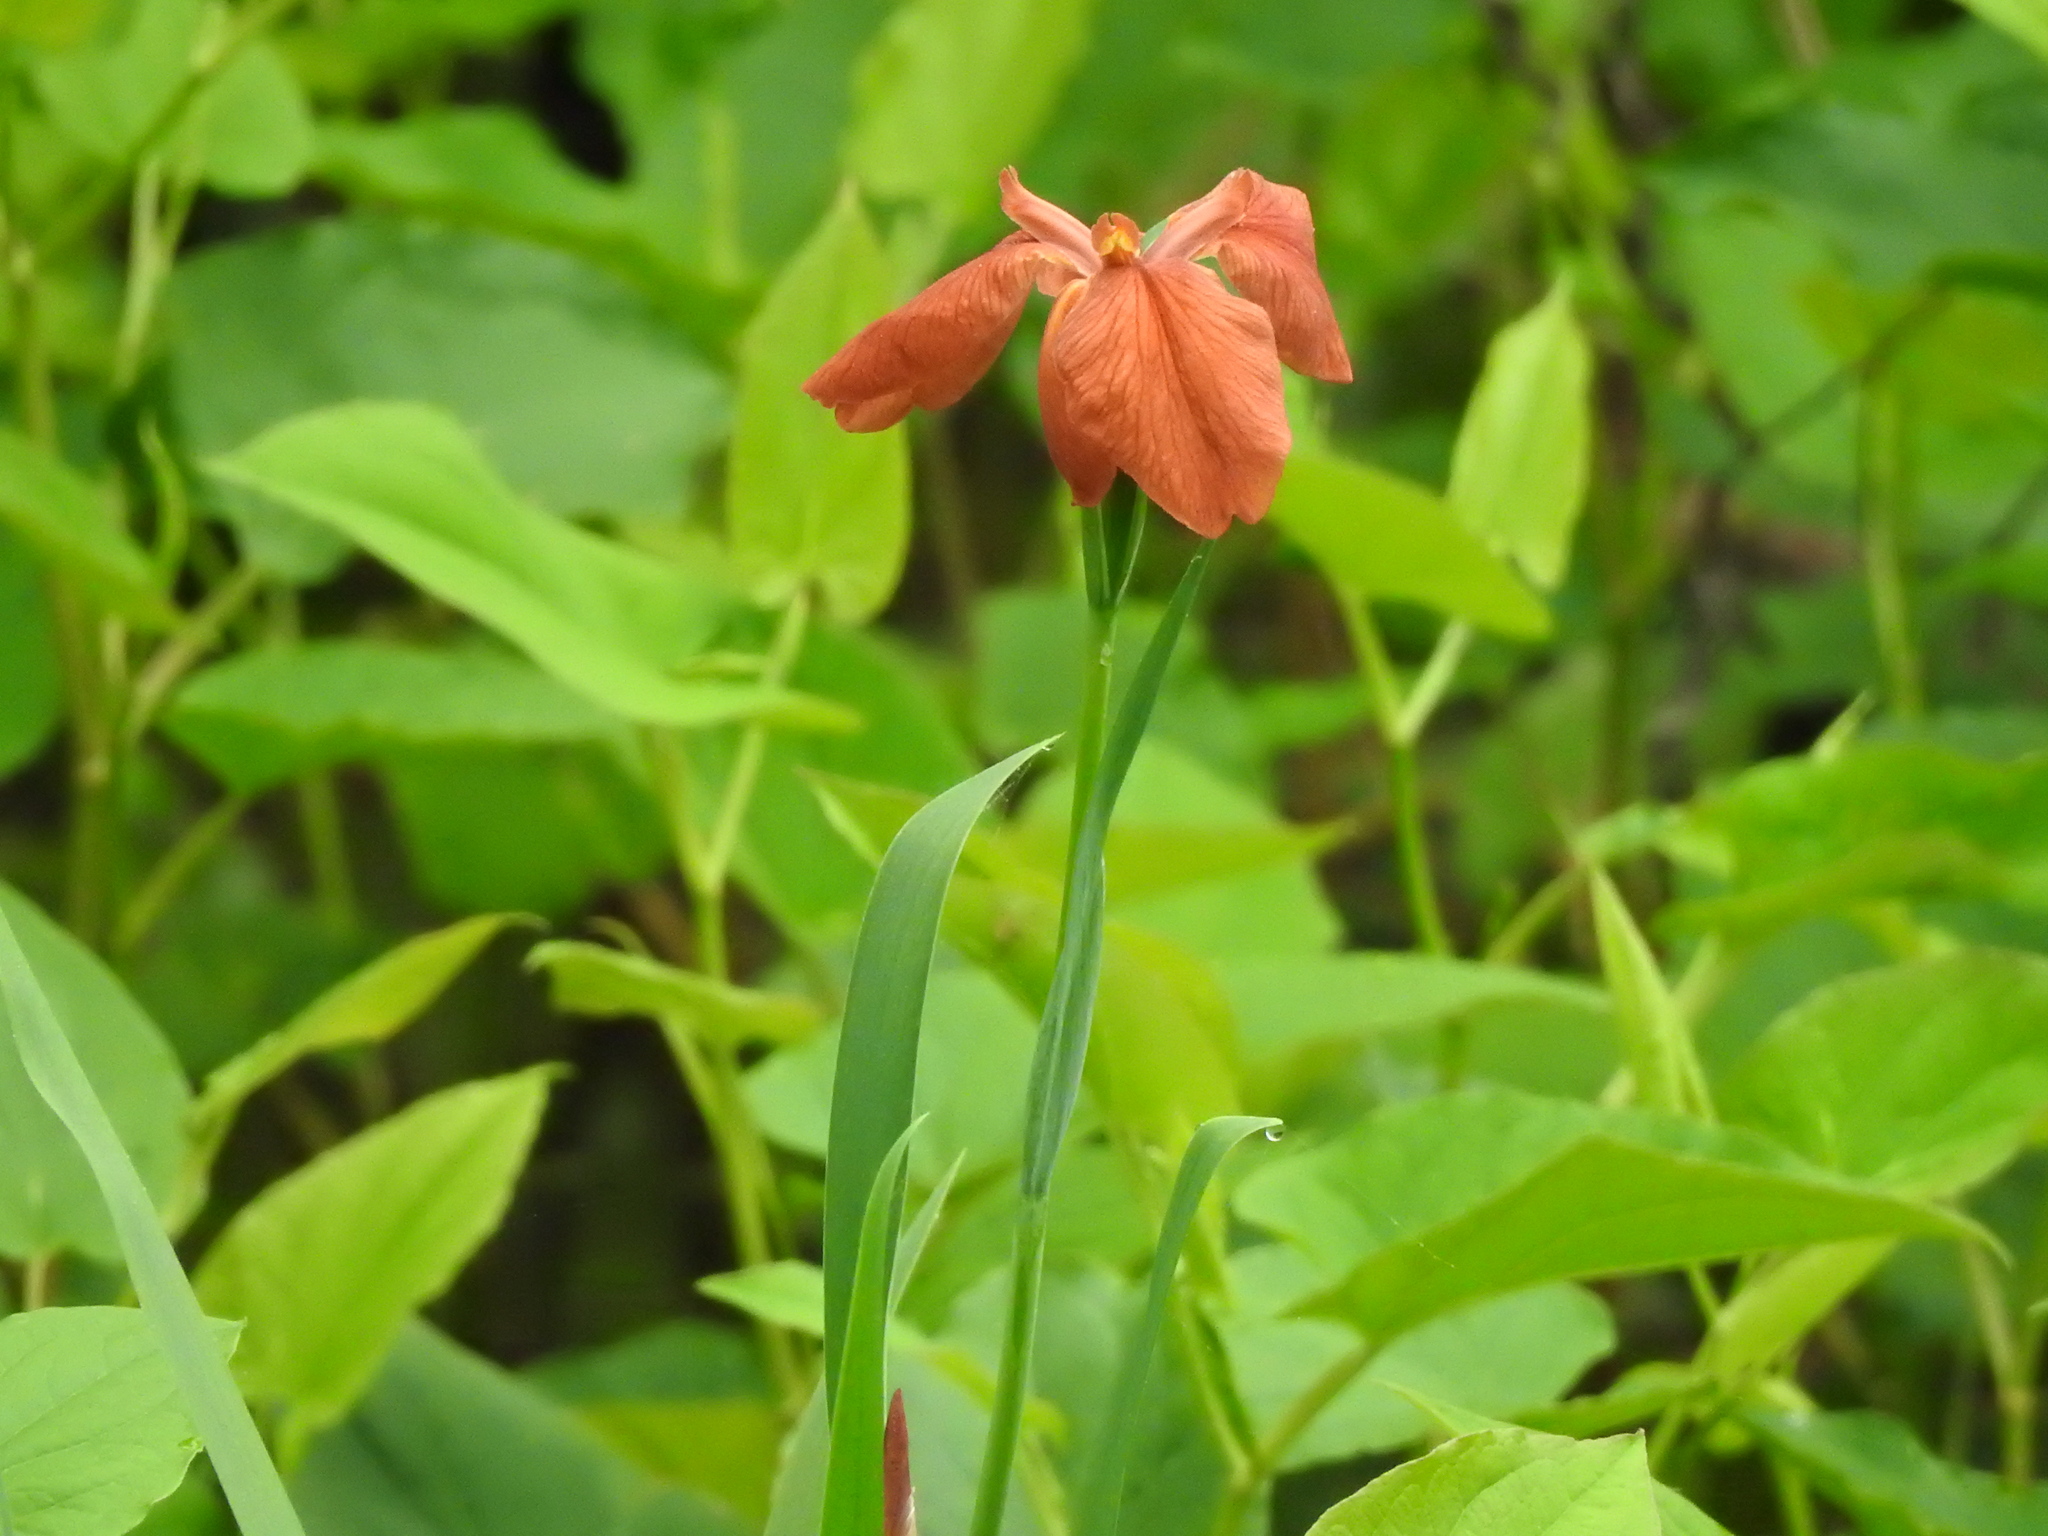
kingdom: Plantae
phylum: Tracheophyta
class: Liliopsida
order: Asparagales
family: Iridaceae
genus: Iris
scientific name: Iris fulva
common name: Copper iris
